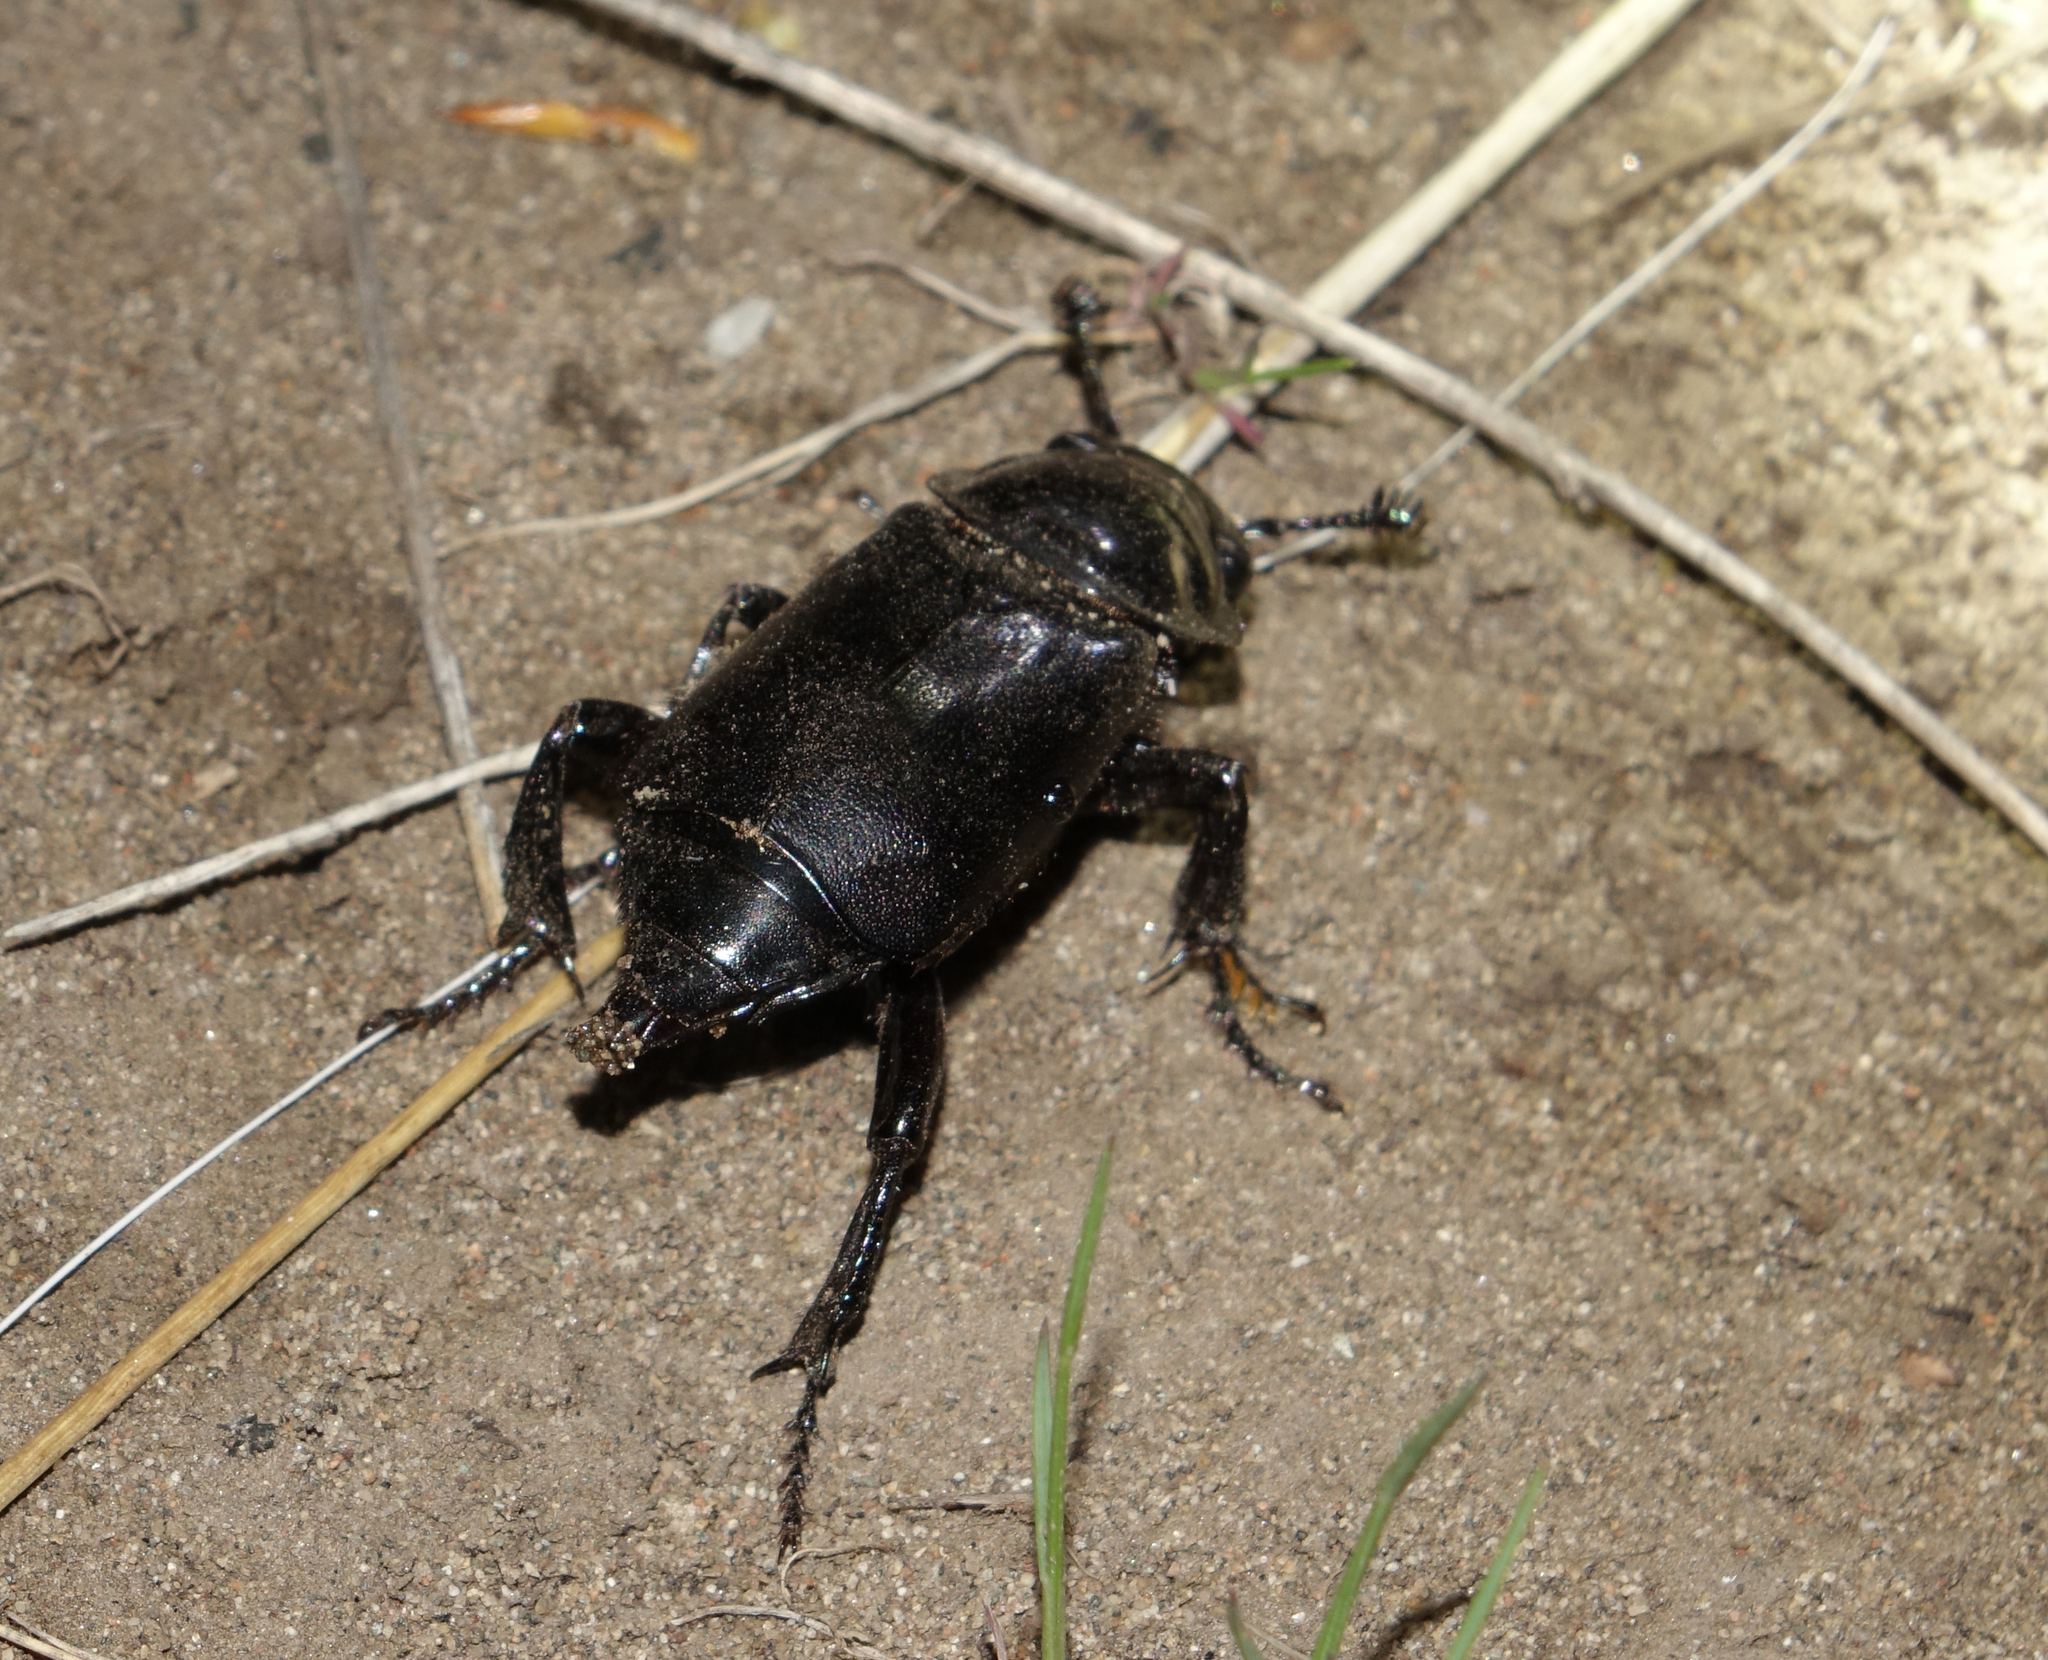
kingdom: Animalia
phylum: Arthropoda
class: Insecta
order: Coleoptera
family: Staphylinidae
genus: Nicrophorus
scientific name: Nicrophorus morio
